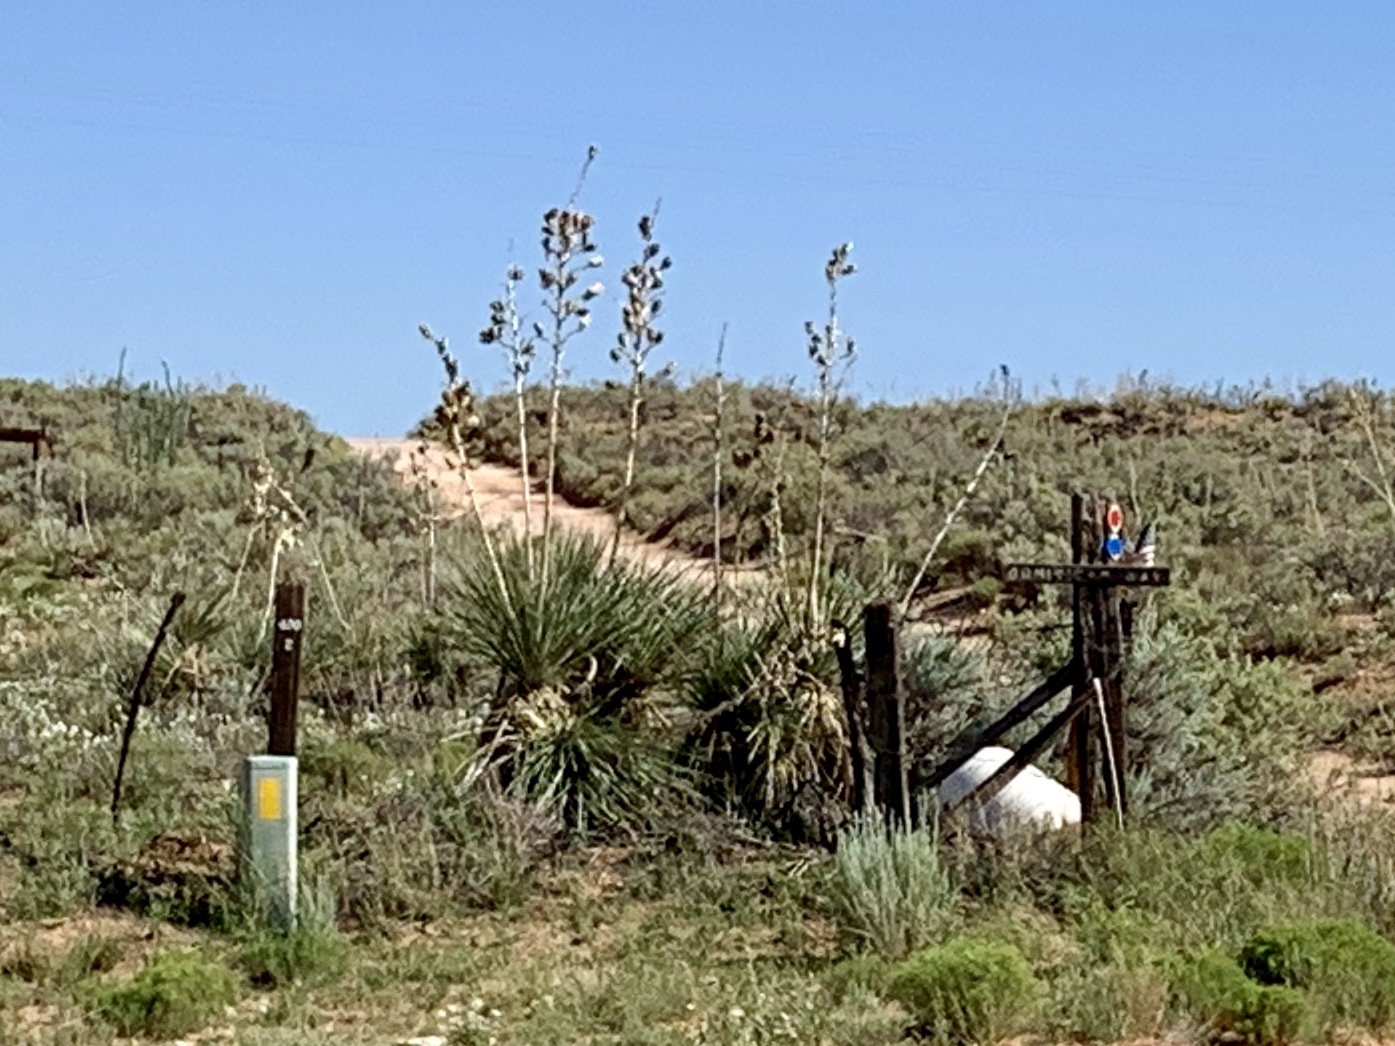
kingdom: Plantae
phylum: Tracheophyta
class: Liliopsida
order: Asparagales
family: Asparagaceae
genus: Yucca
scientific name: Yucca elata
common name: Palmella
